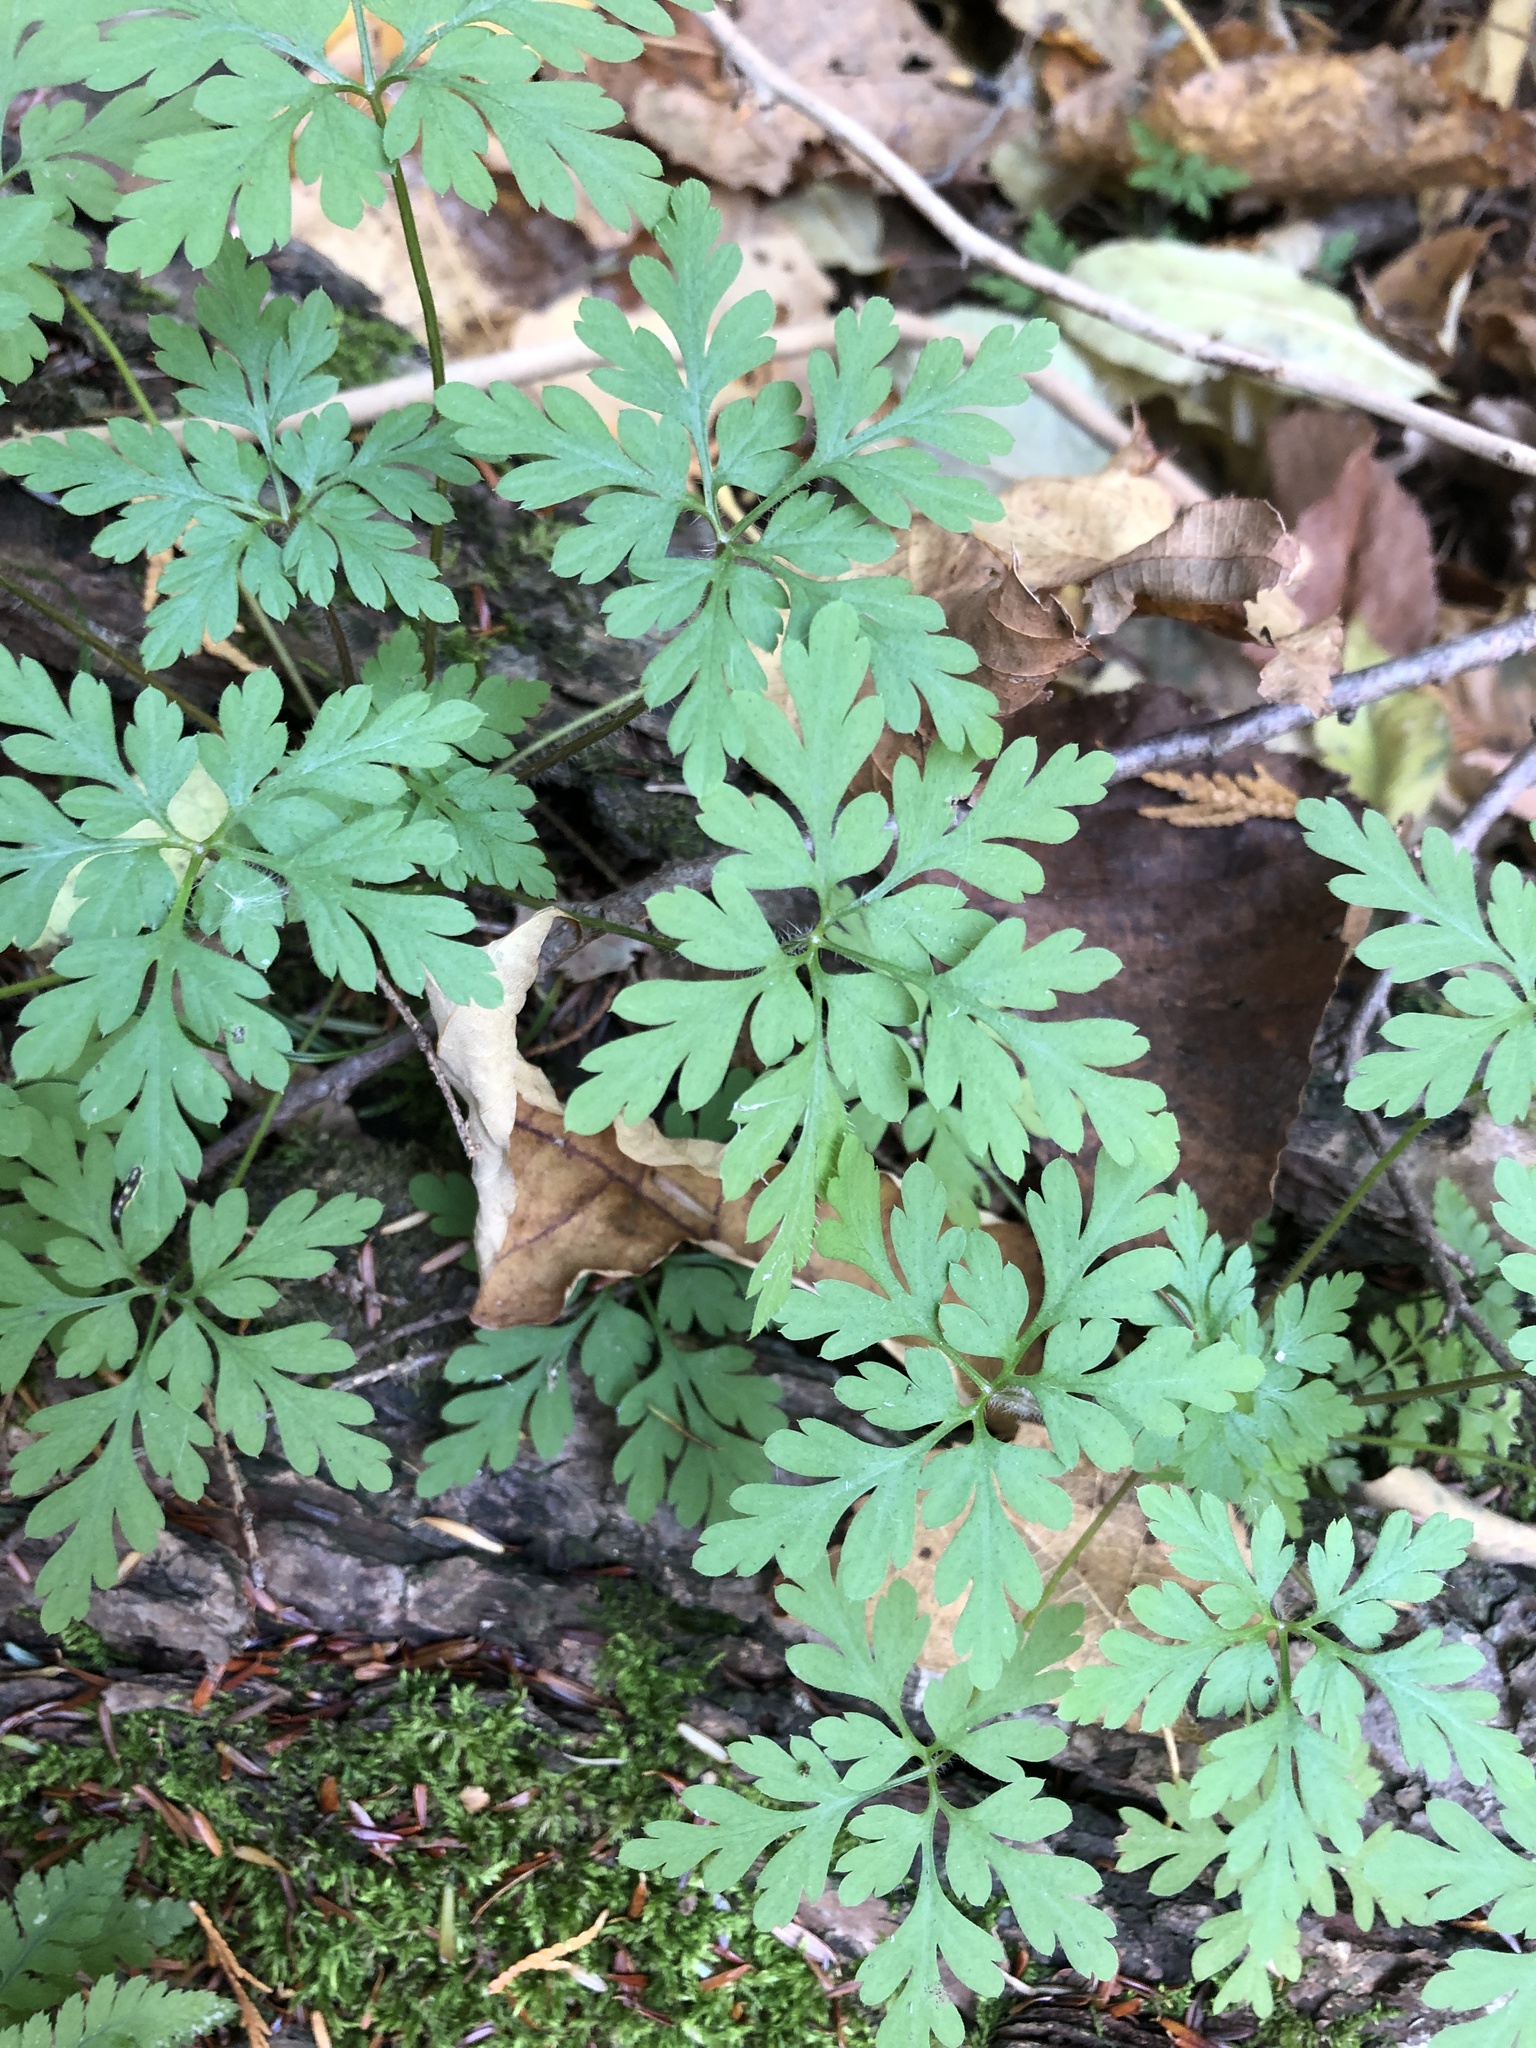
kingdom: Plantae
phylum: Tracheophyta
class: Magnoliopsida
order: Geraniales
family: Geraniaceae
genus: Geranium
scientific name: Geranium robertianum
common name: Herb-robert
